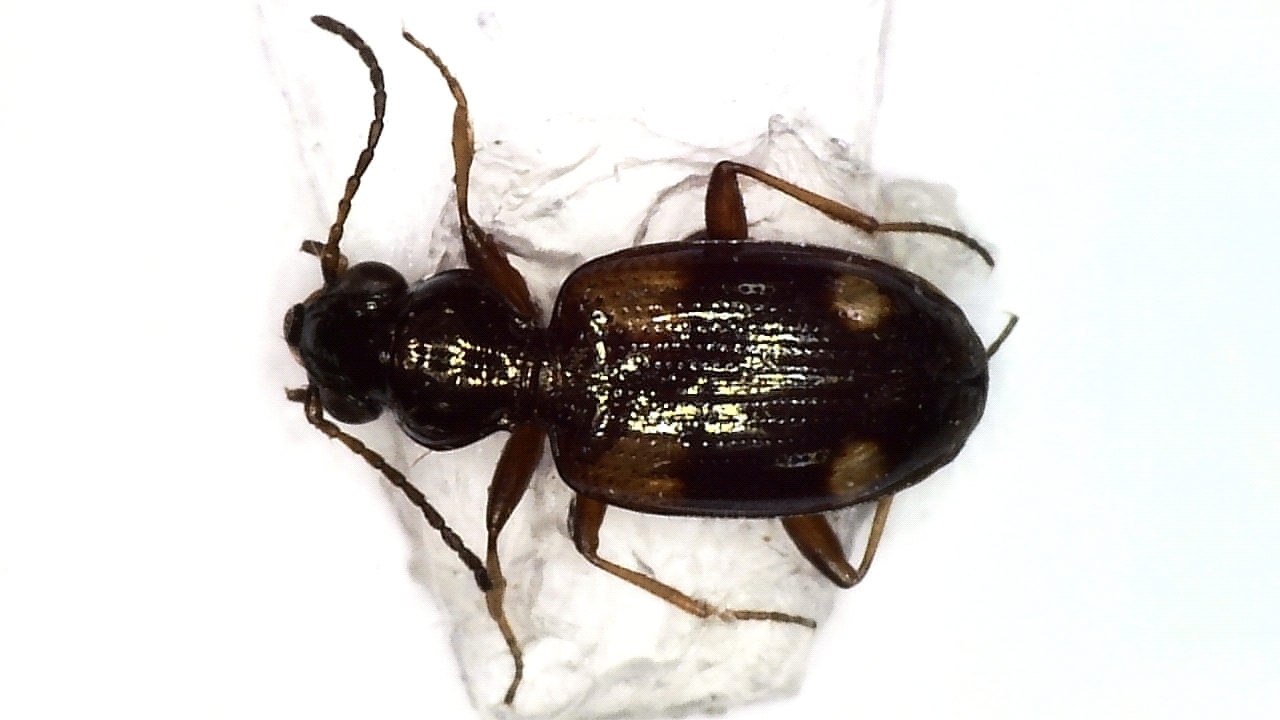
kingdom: Animalia
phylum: Arthropoda
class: Insecta
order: Coleoptera
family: Carabidae
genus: Bembidion
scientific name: Bembidion quadrimaculatum
